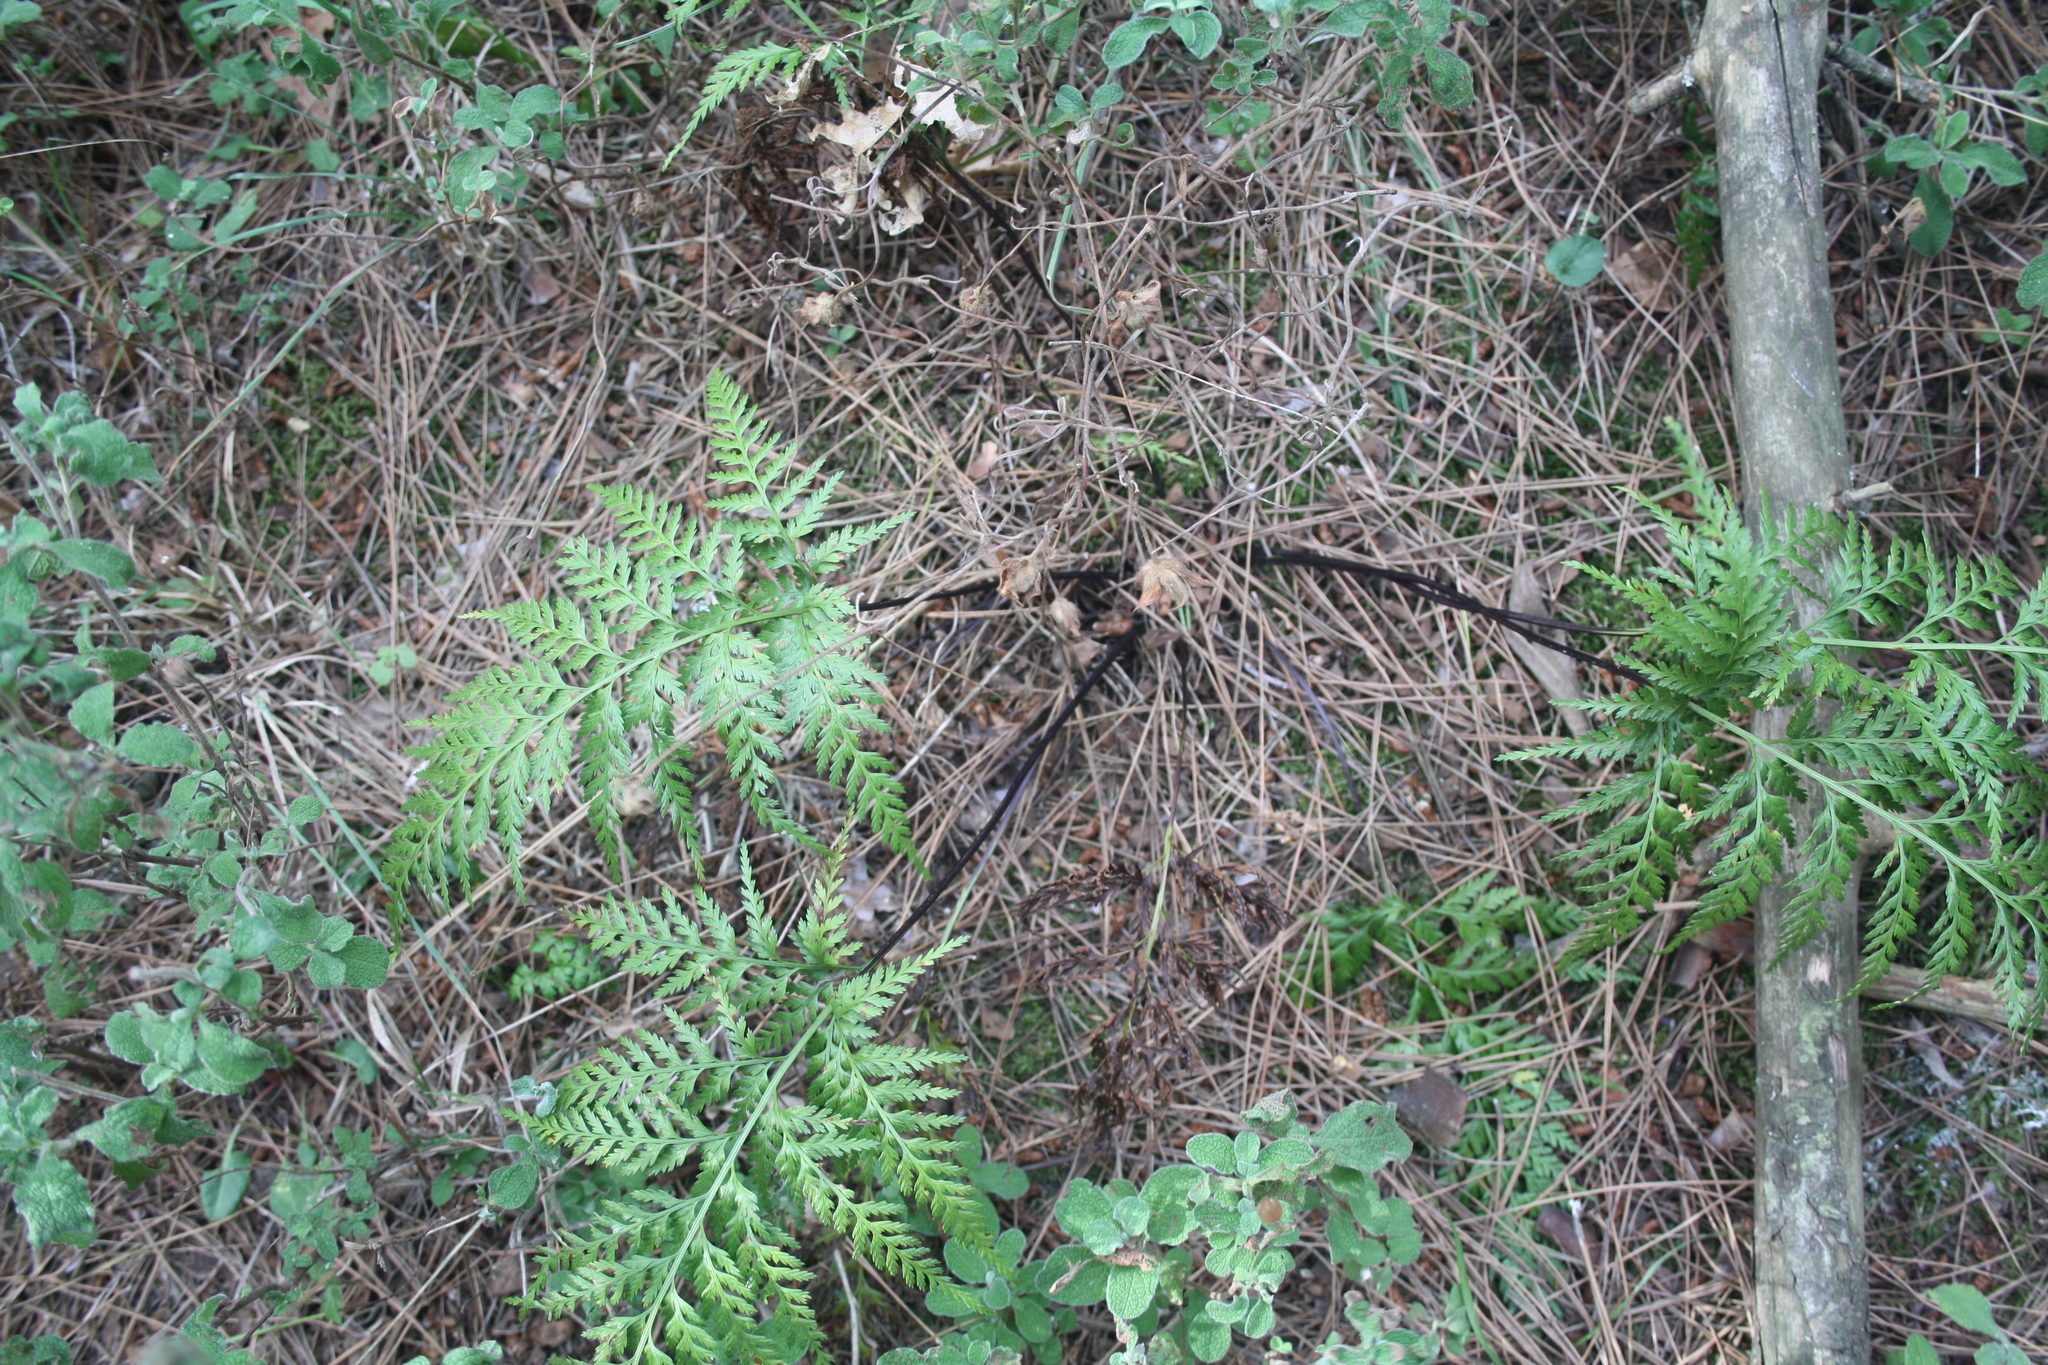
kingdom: Plantae
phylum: Tracheophyta
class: Polypodiopsida
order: Polypodiales
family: Aspleniaceae
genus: Asplenium
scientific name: Asplenium onopteris
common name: Irish spleenwort
